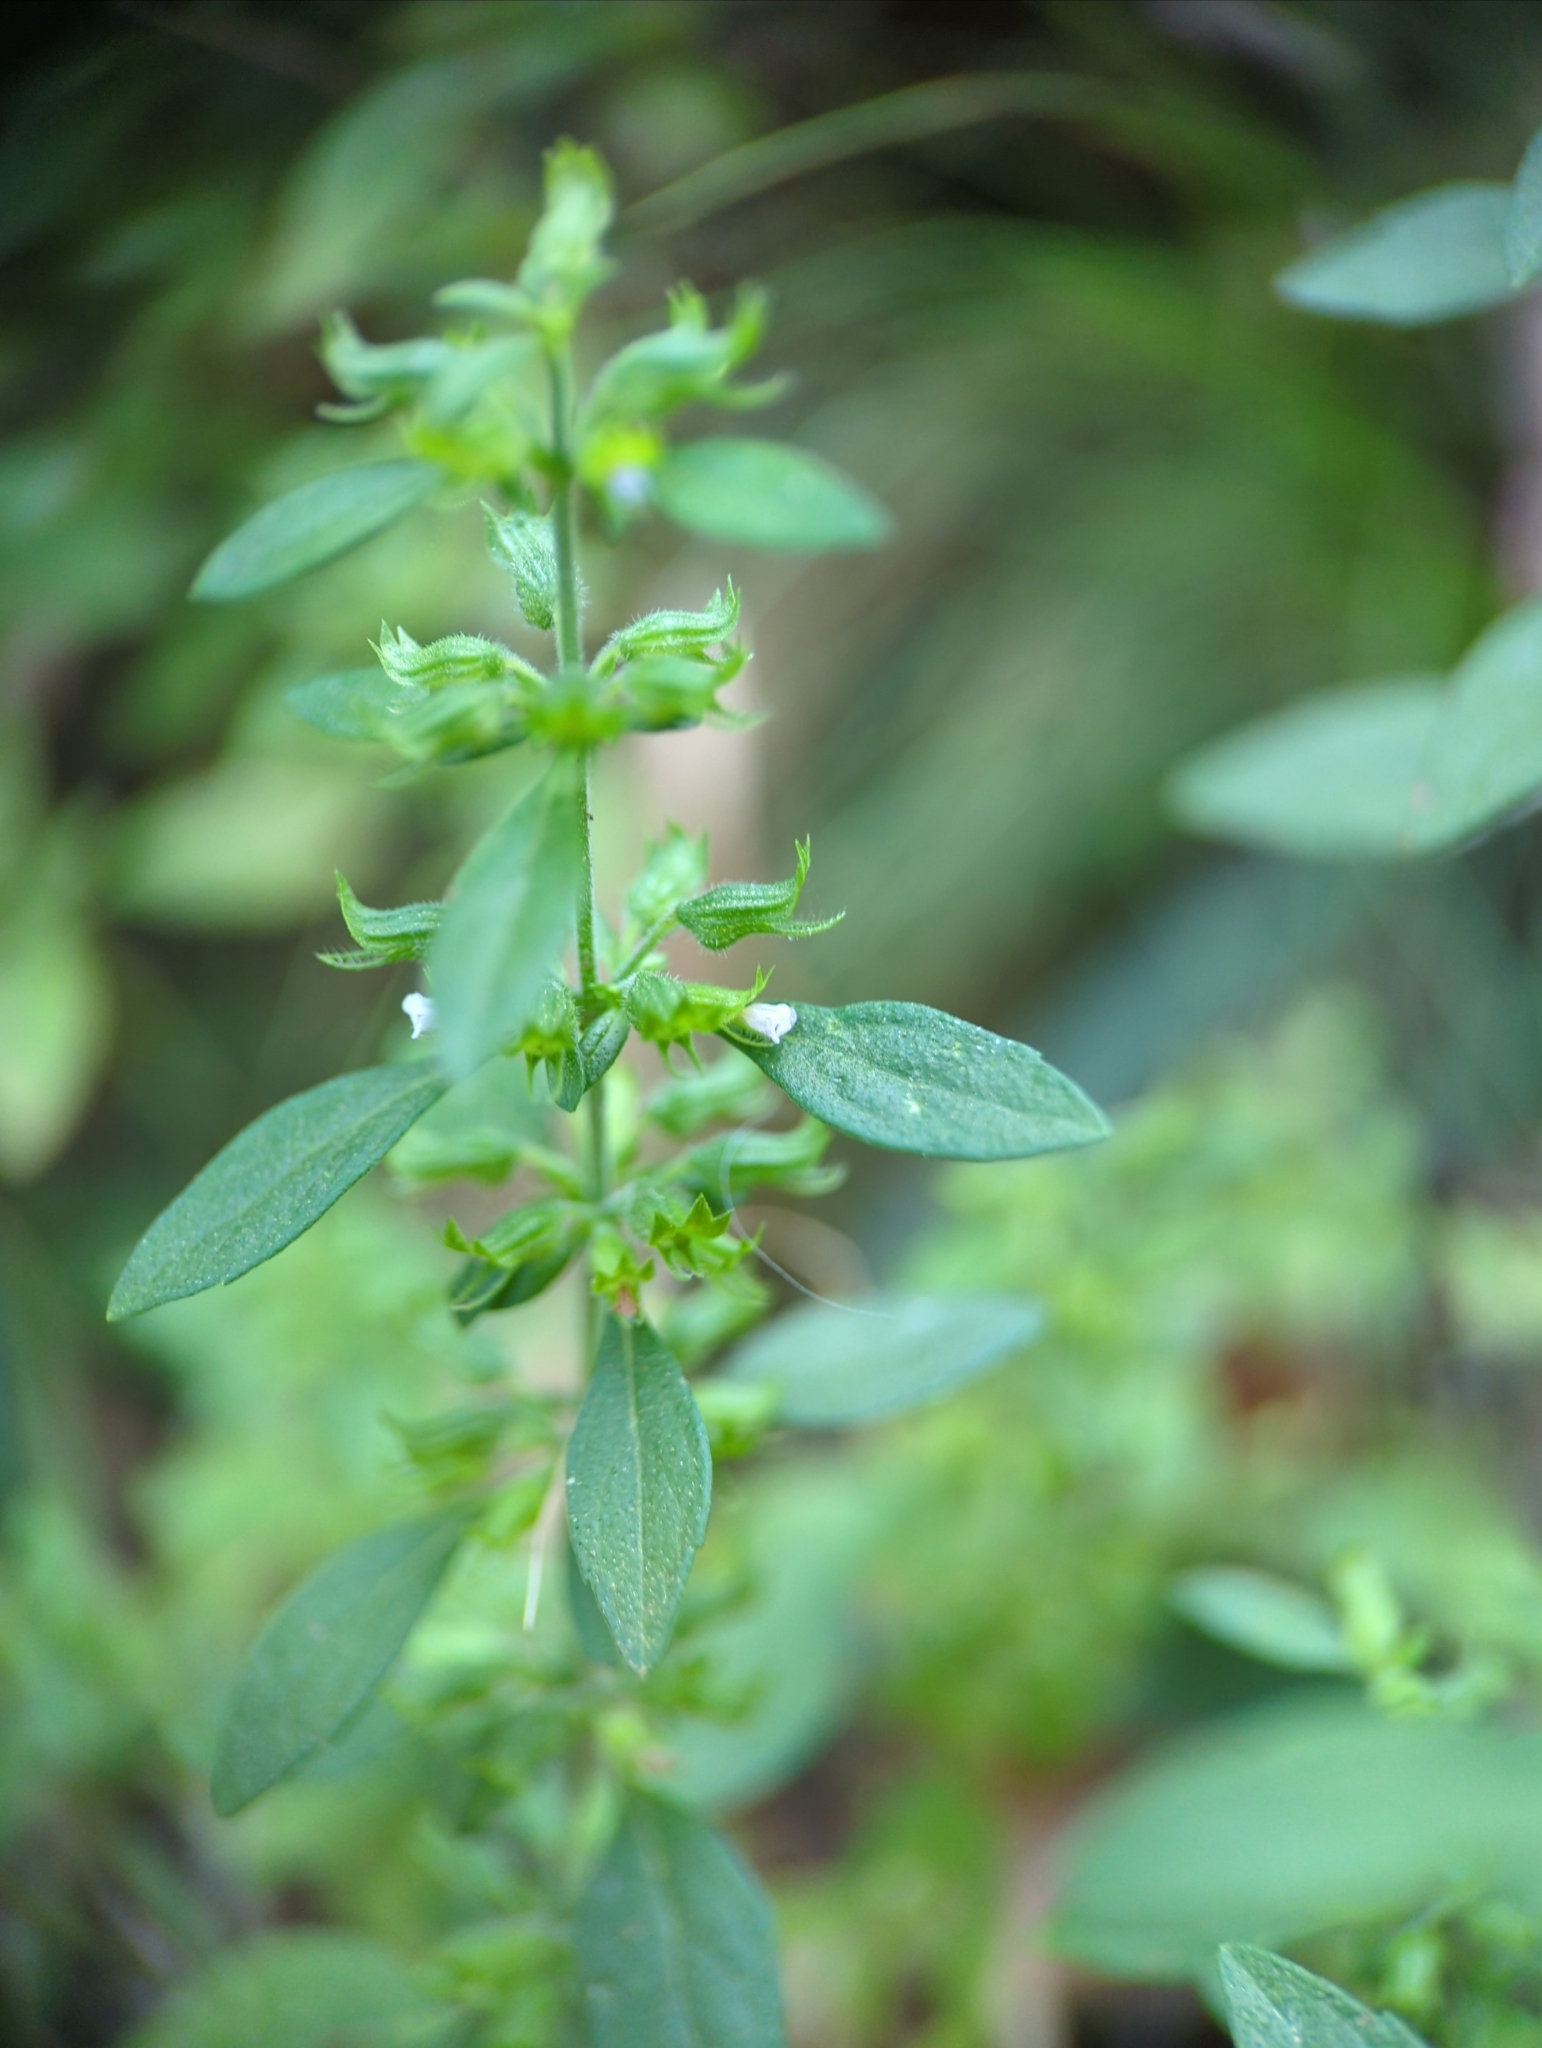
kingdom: Plantae
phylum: Tracheophyta
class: Magnoliopsida
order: Lamiales
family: Lamiaceae
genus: Hedeoma
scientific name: Hedeoma pulegioides
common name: American false pennyroyal
